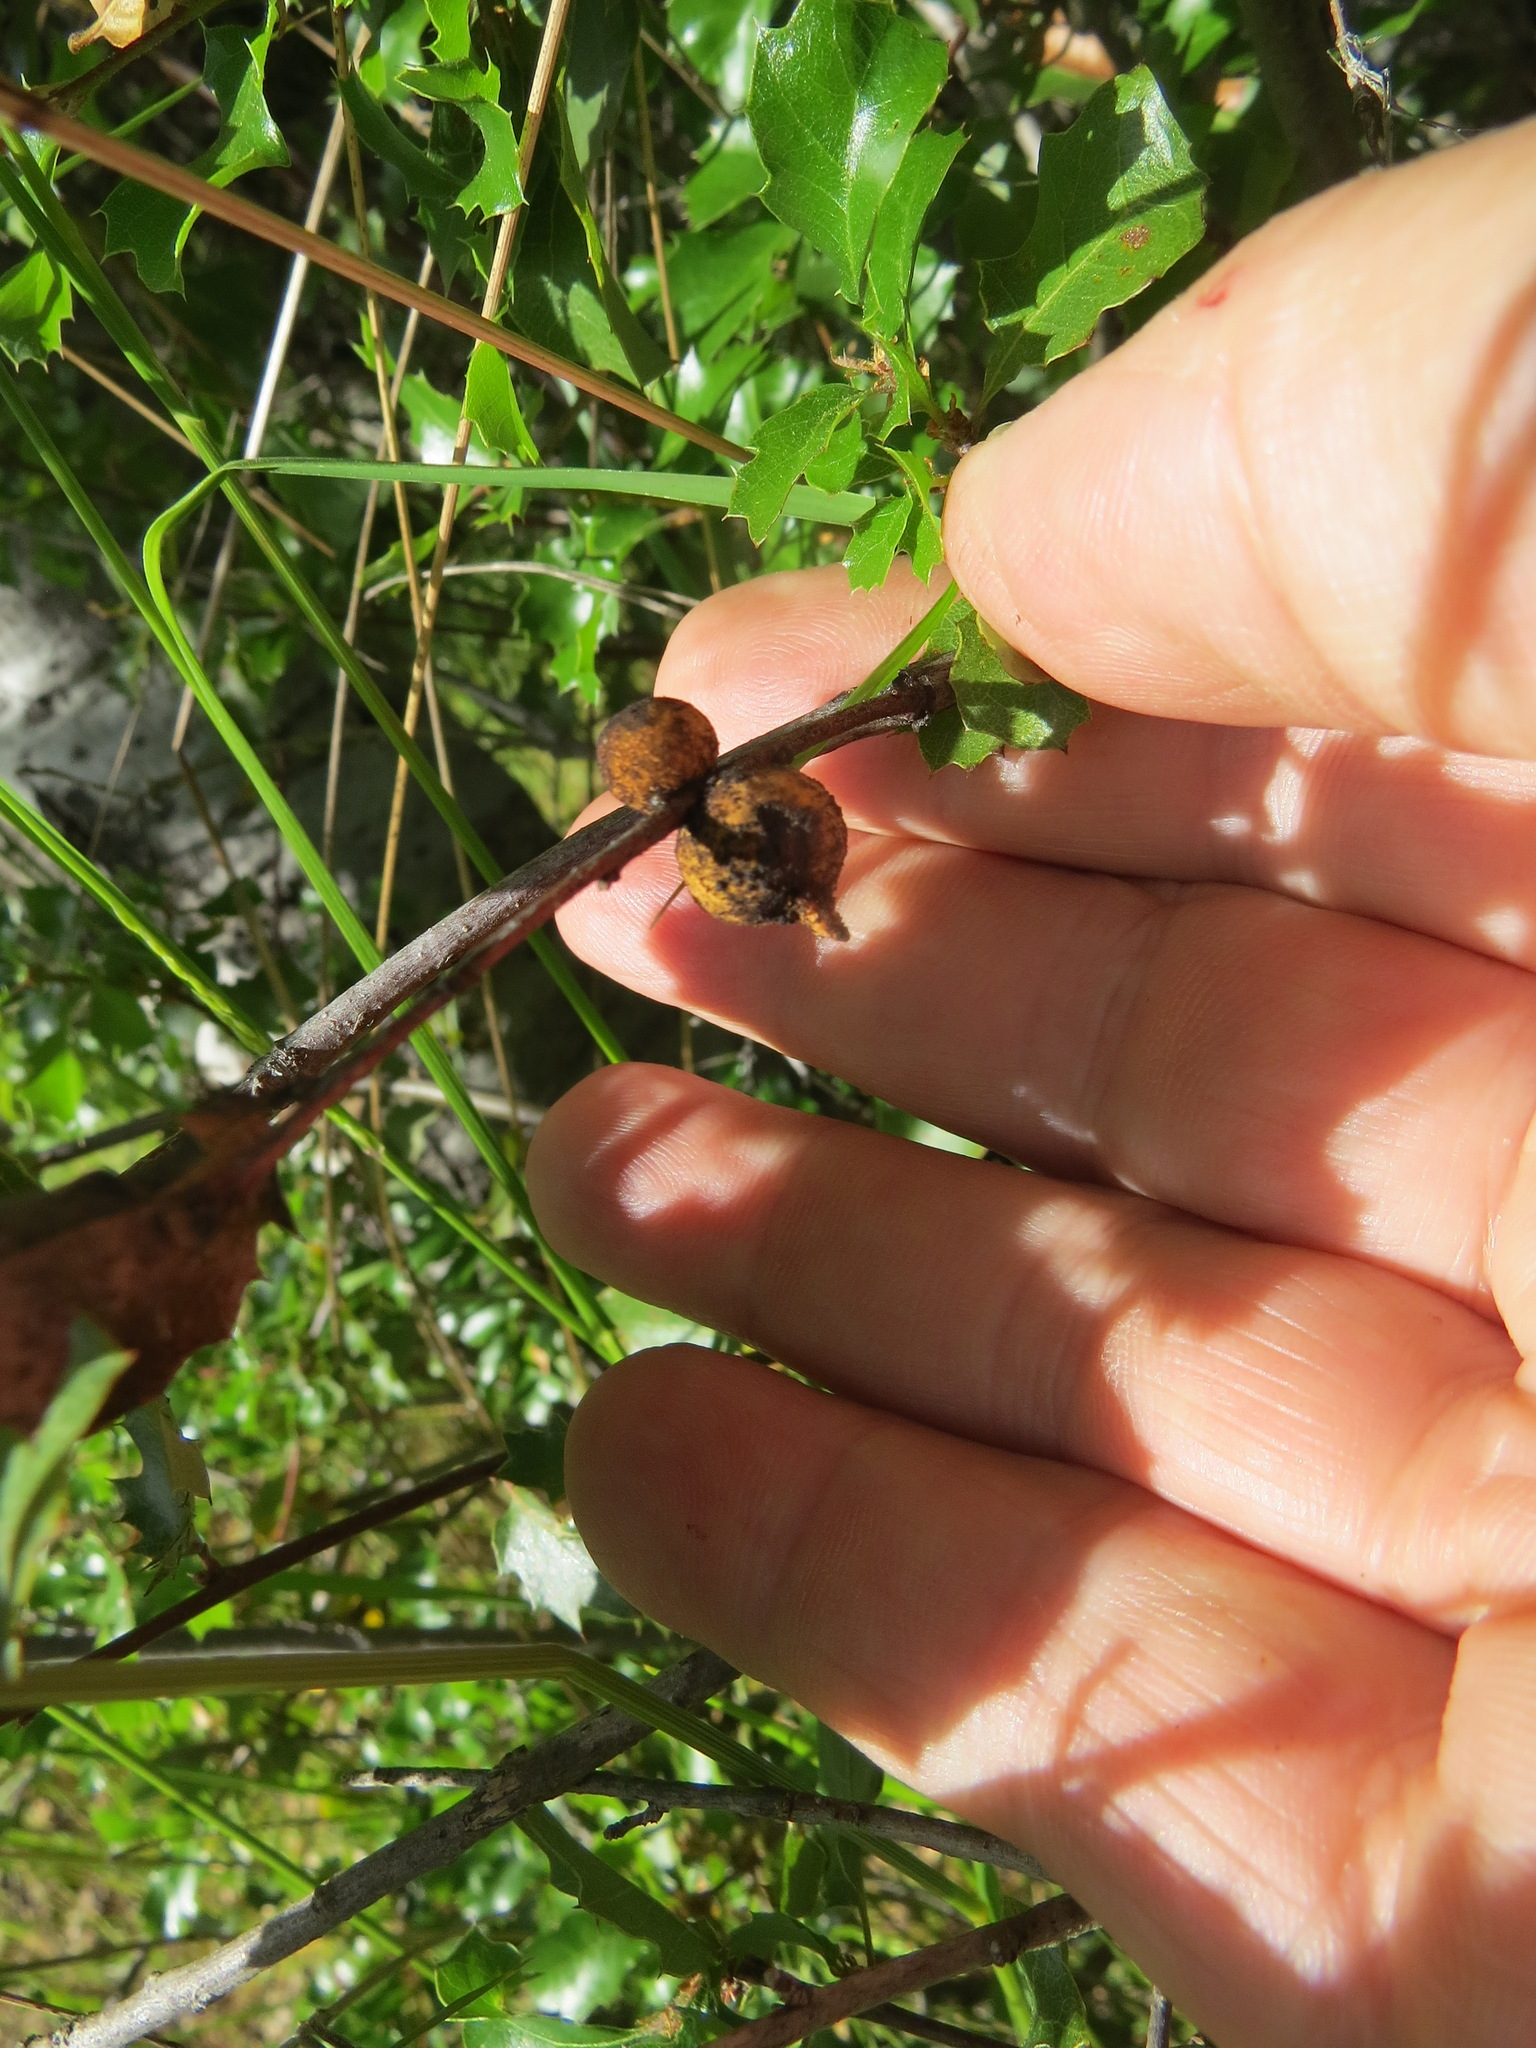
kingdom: Animalia
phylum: Arthropoda
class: Insecta
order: Hymenoptera
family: Cynipidae
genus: Burnettweldia
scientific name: Burnettweldia
